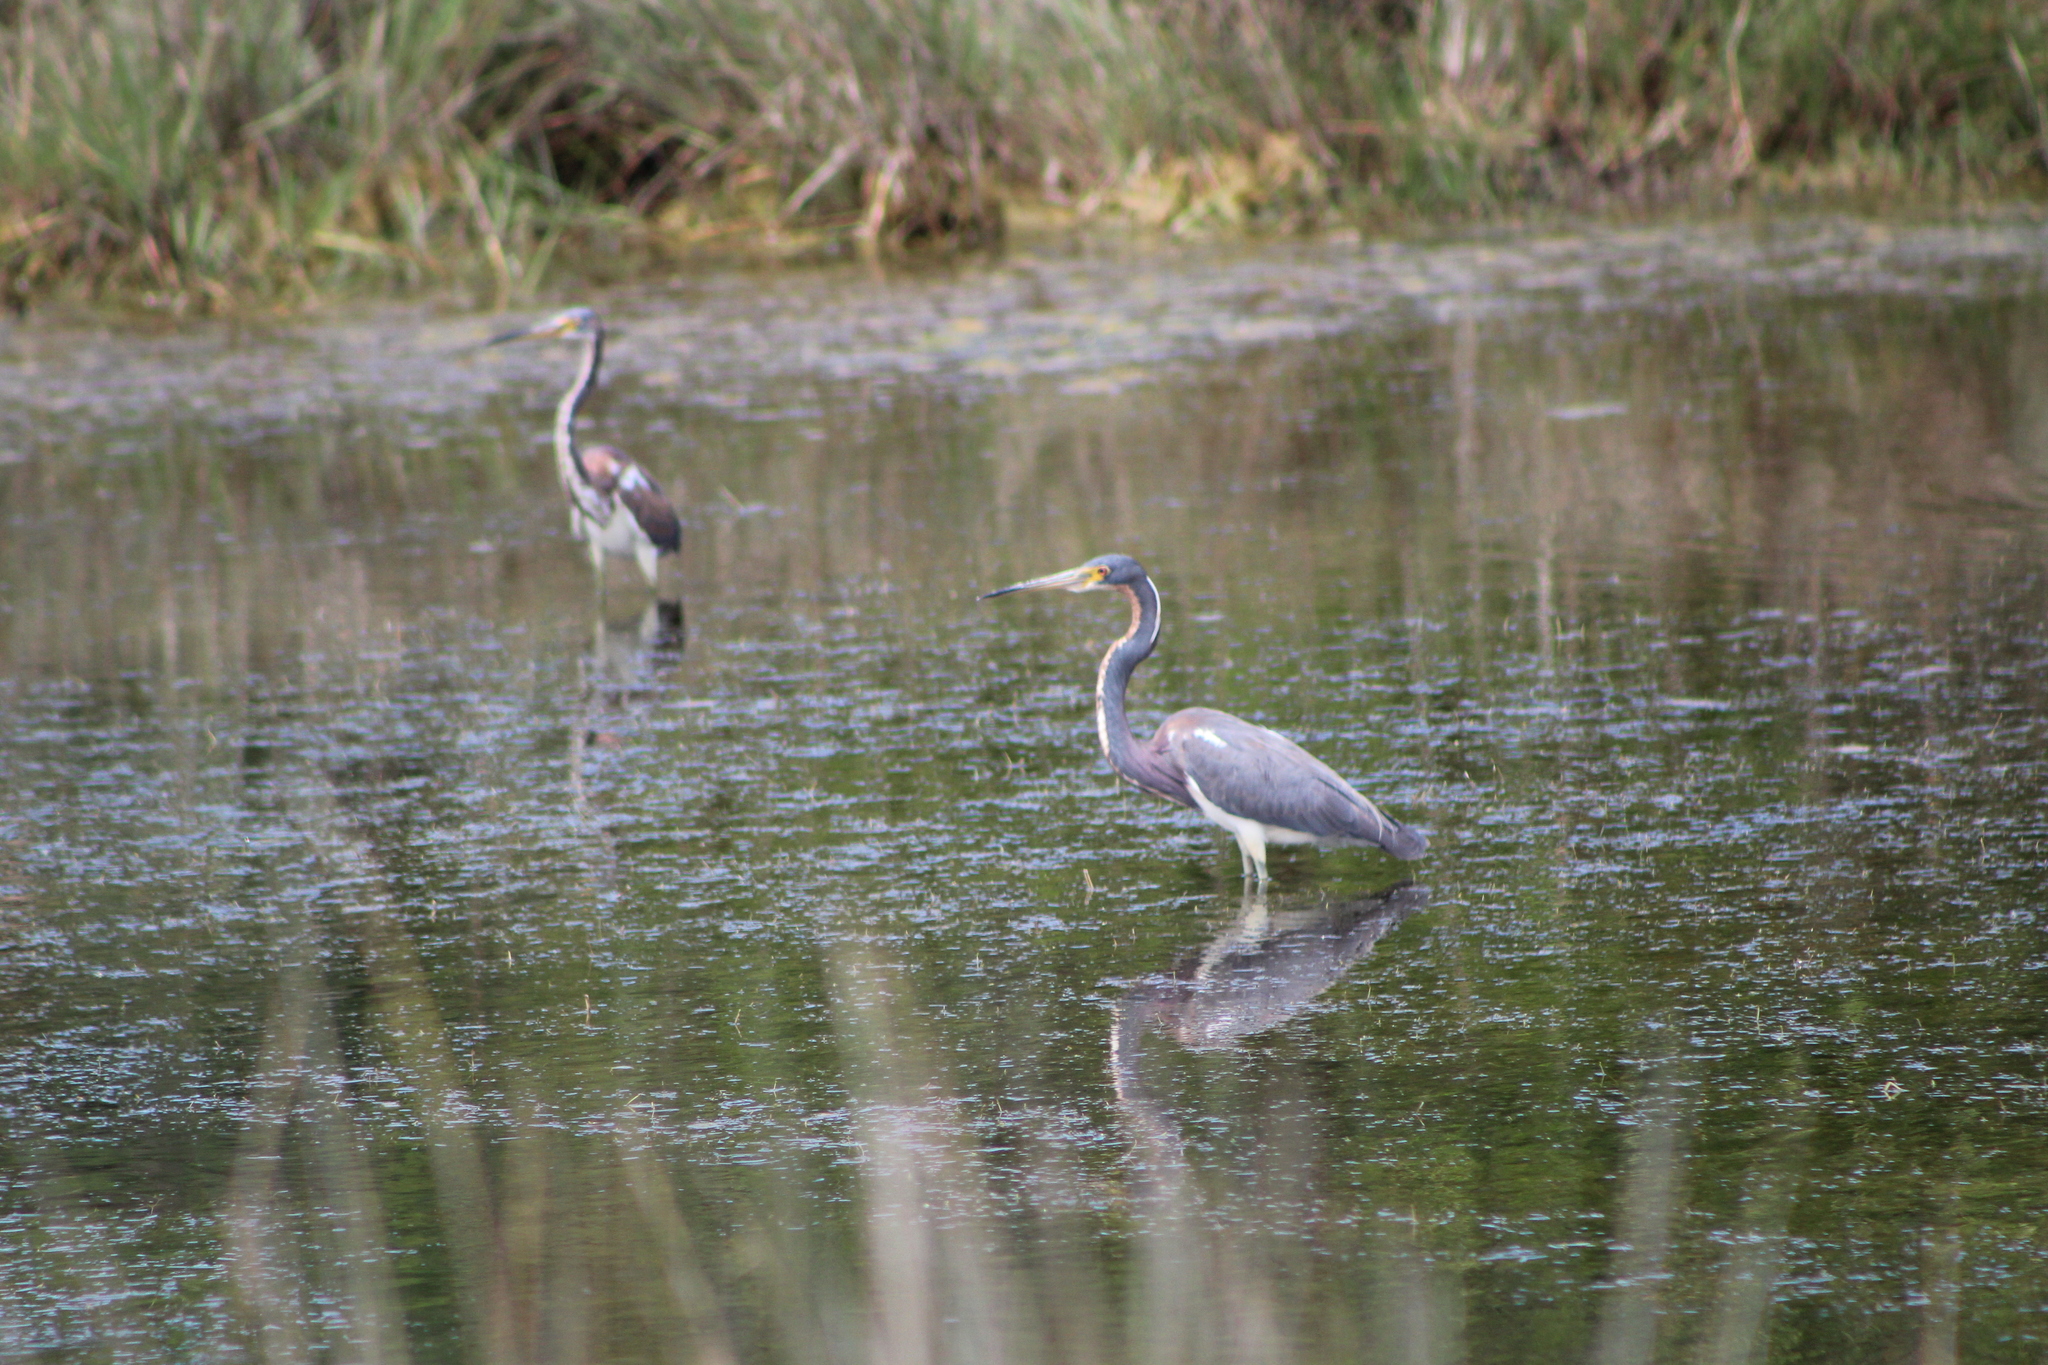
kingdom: Animalia
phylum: Chordata
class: Aves
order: Pelecaniformes
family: Ardeidae
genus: Egretta
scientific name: Egretta tricolor
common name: Tricolored heron
